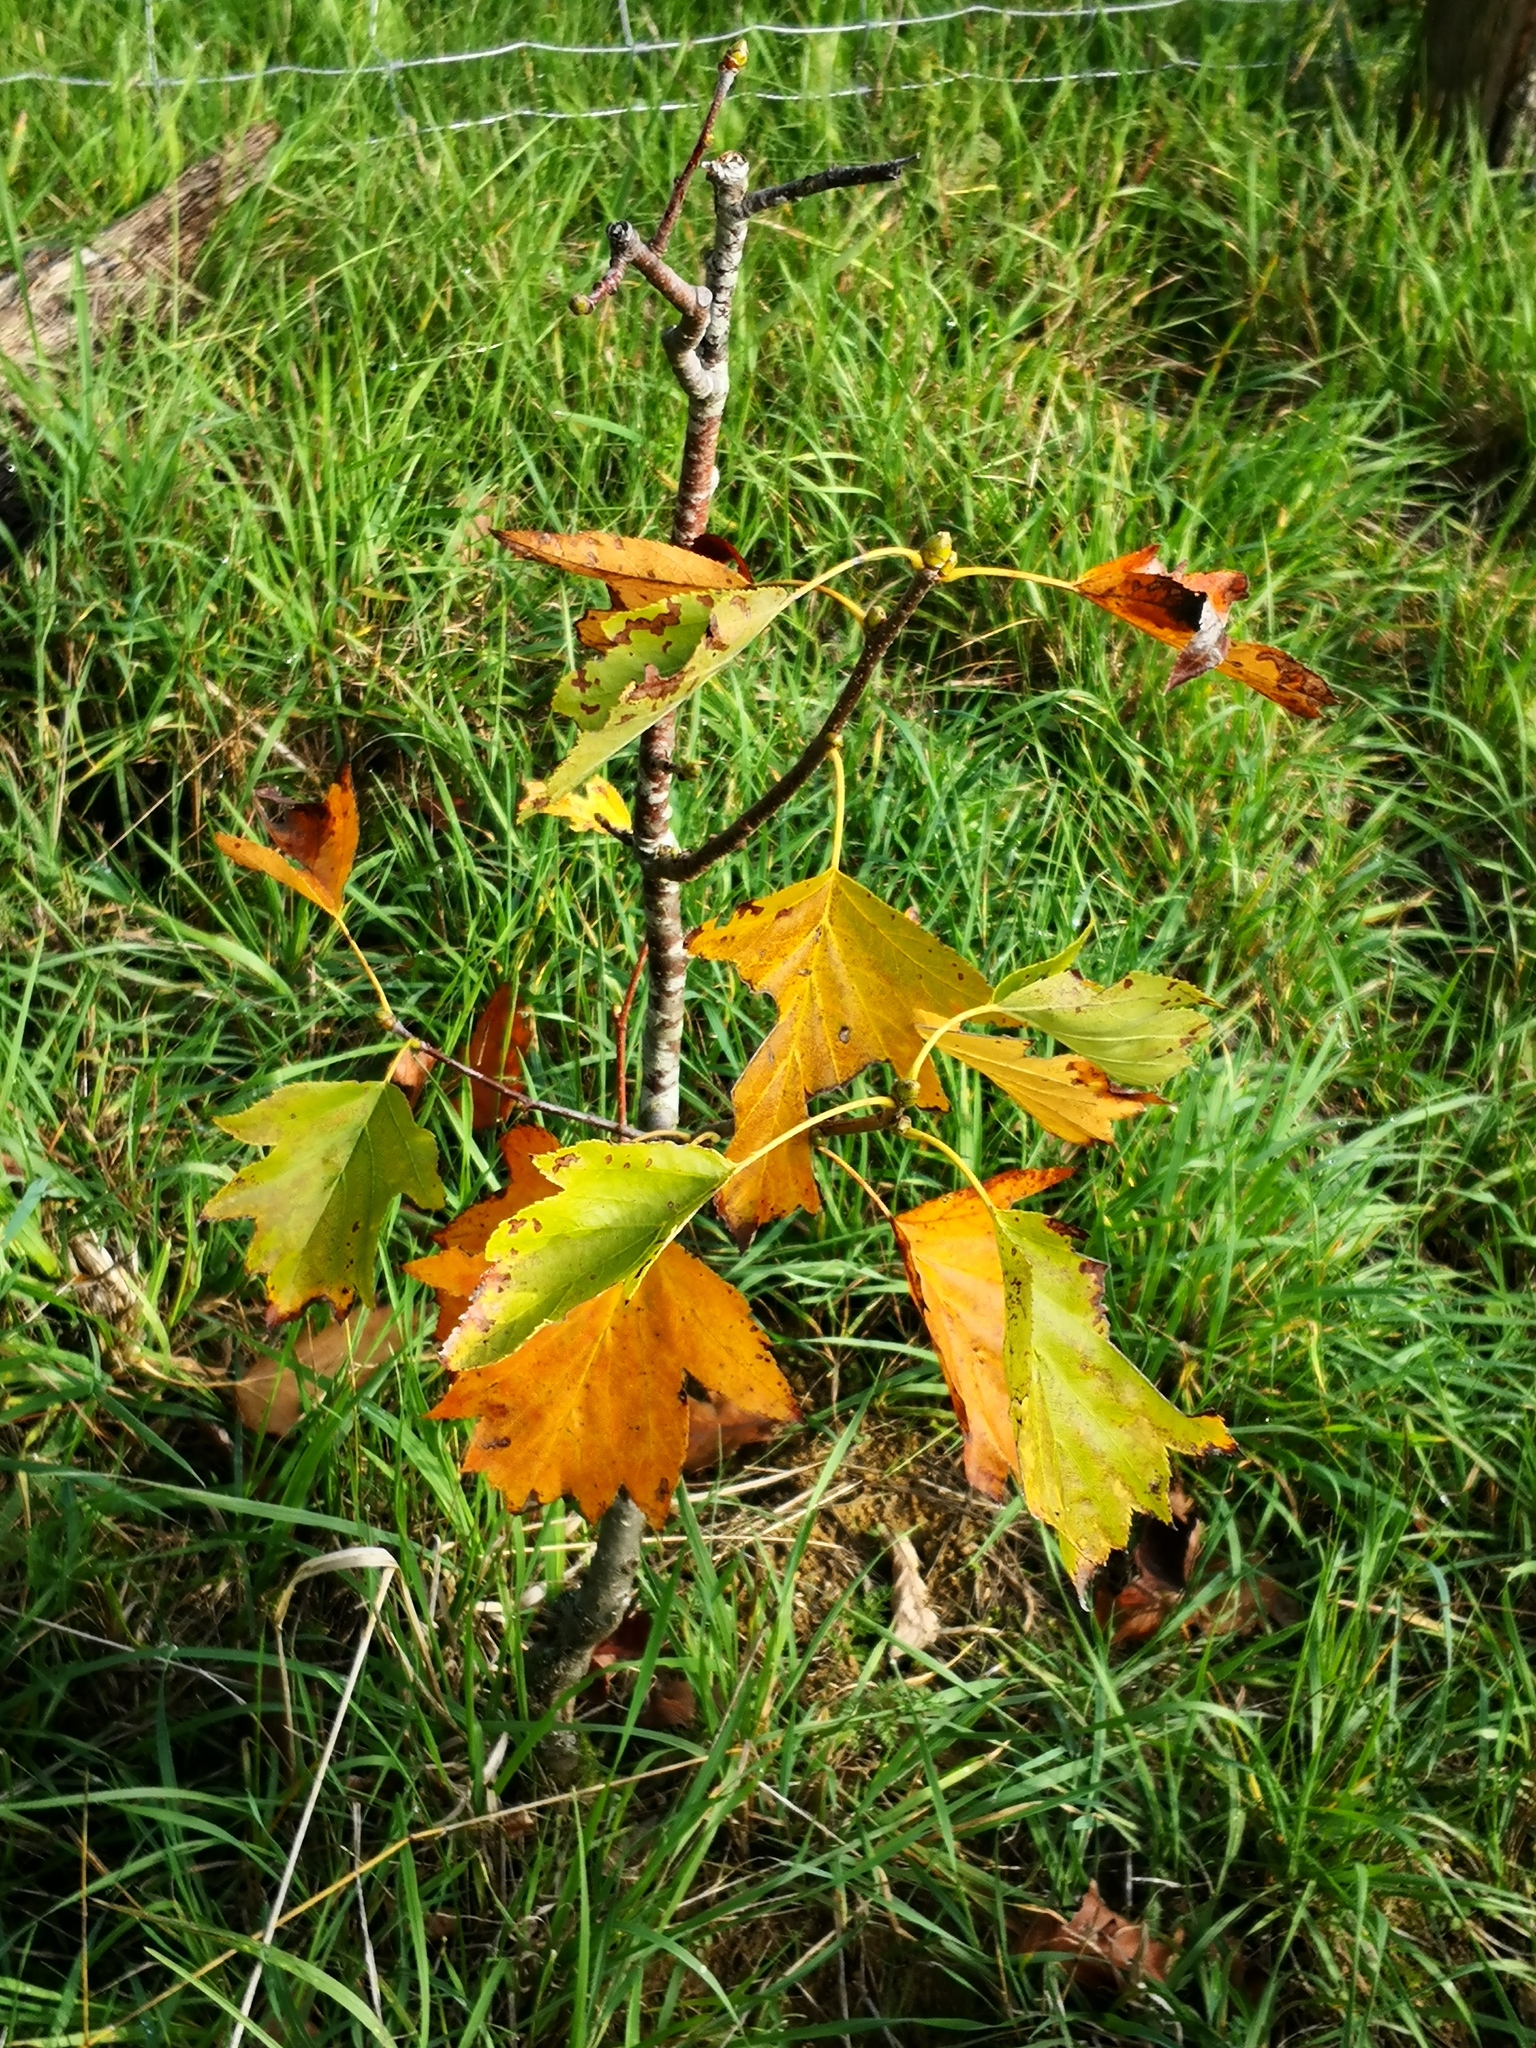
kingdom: Plantae
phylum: Tracheophyta
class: Magnoliopsida
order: Rosales
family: Rosaceae
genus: Torminalis
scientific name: Torminalis glaberrima
